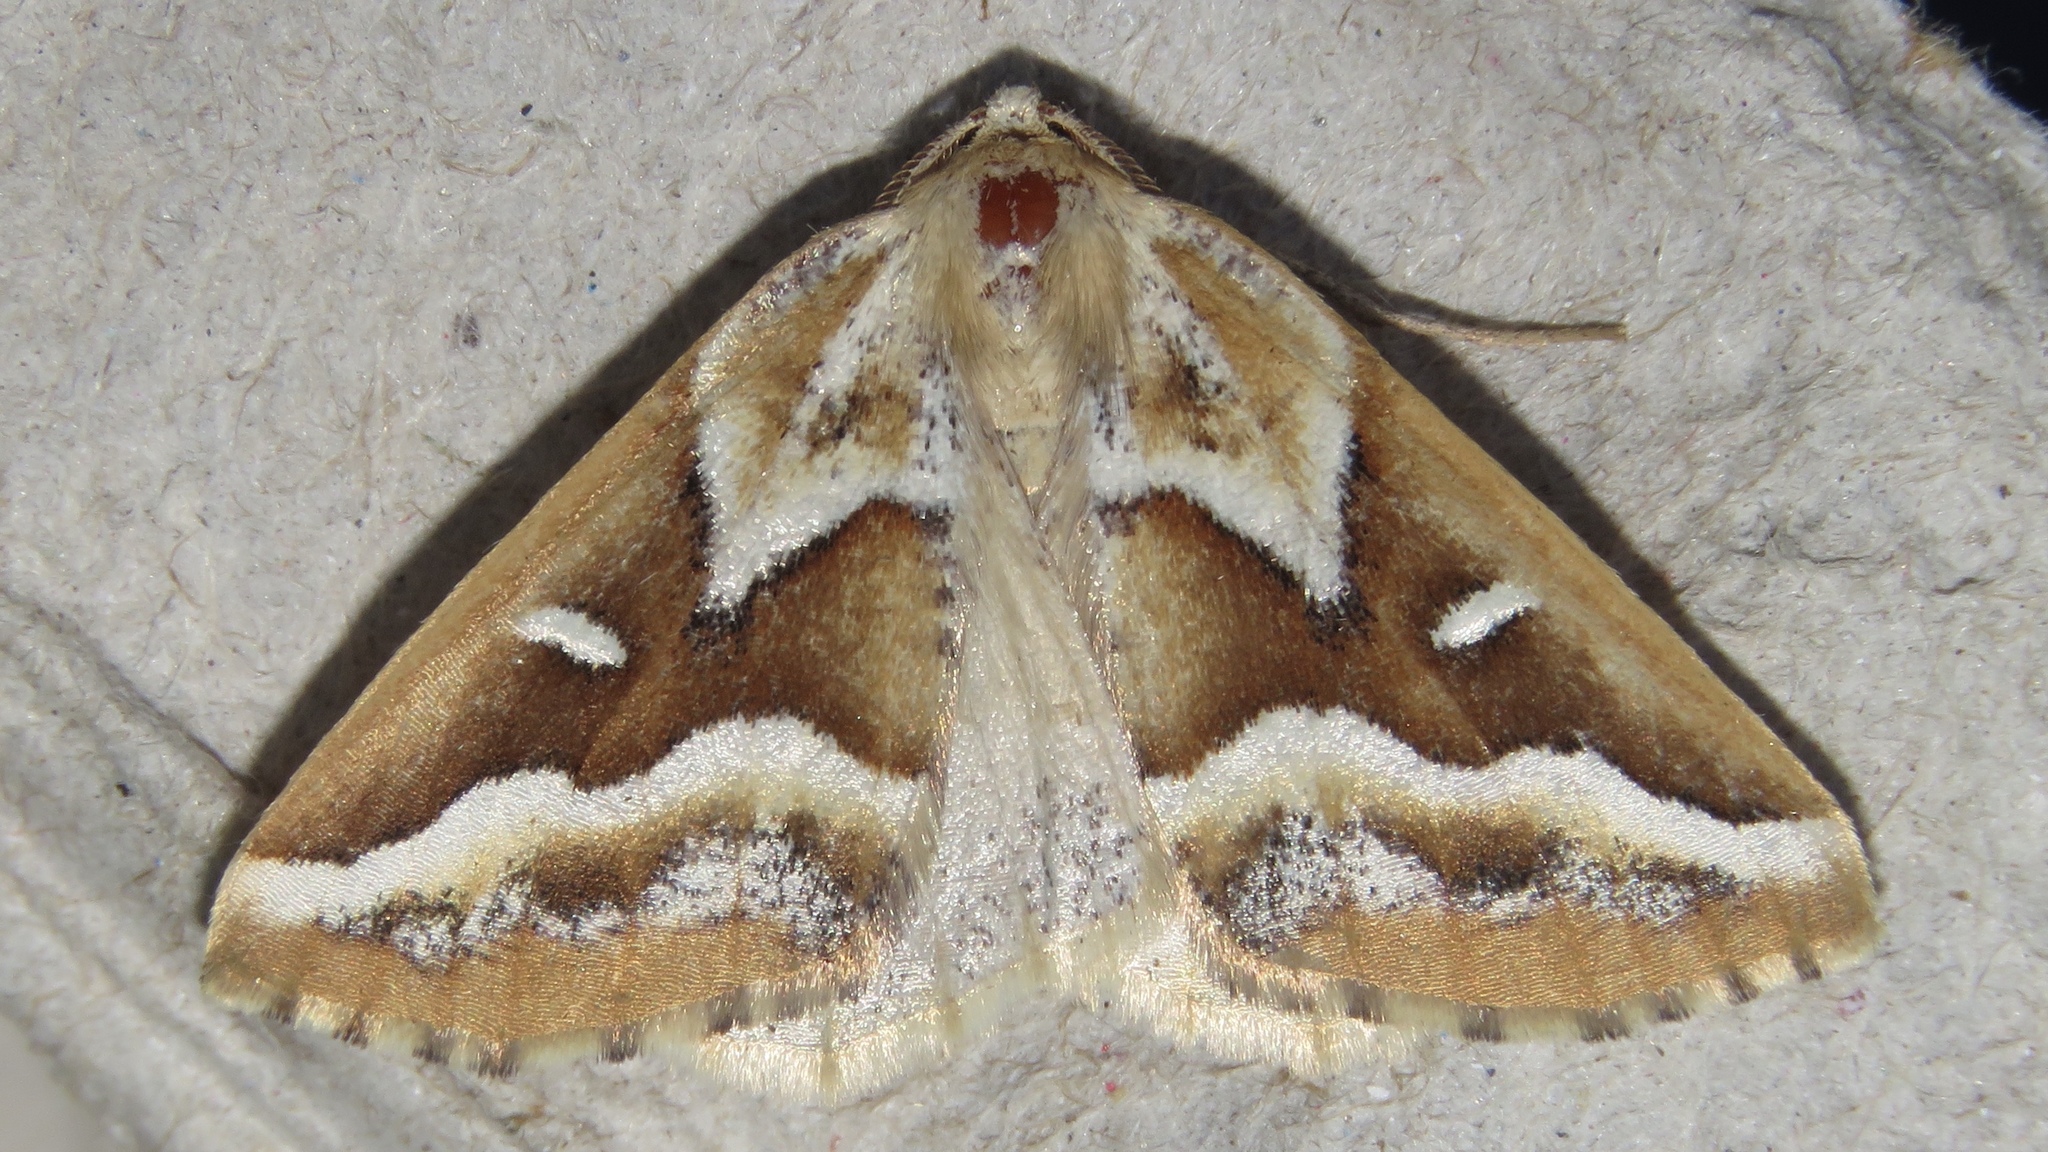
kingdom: Animalia
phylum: Arthropoda
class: Insecta
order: Lepidoptera
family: Geometridae
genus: Caripeta
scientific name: Caripeta angustiorata
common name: Brown pine looper
